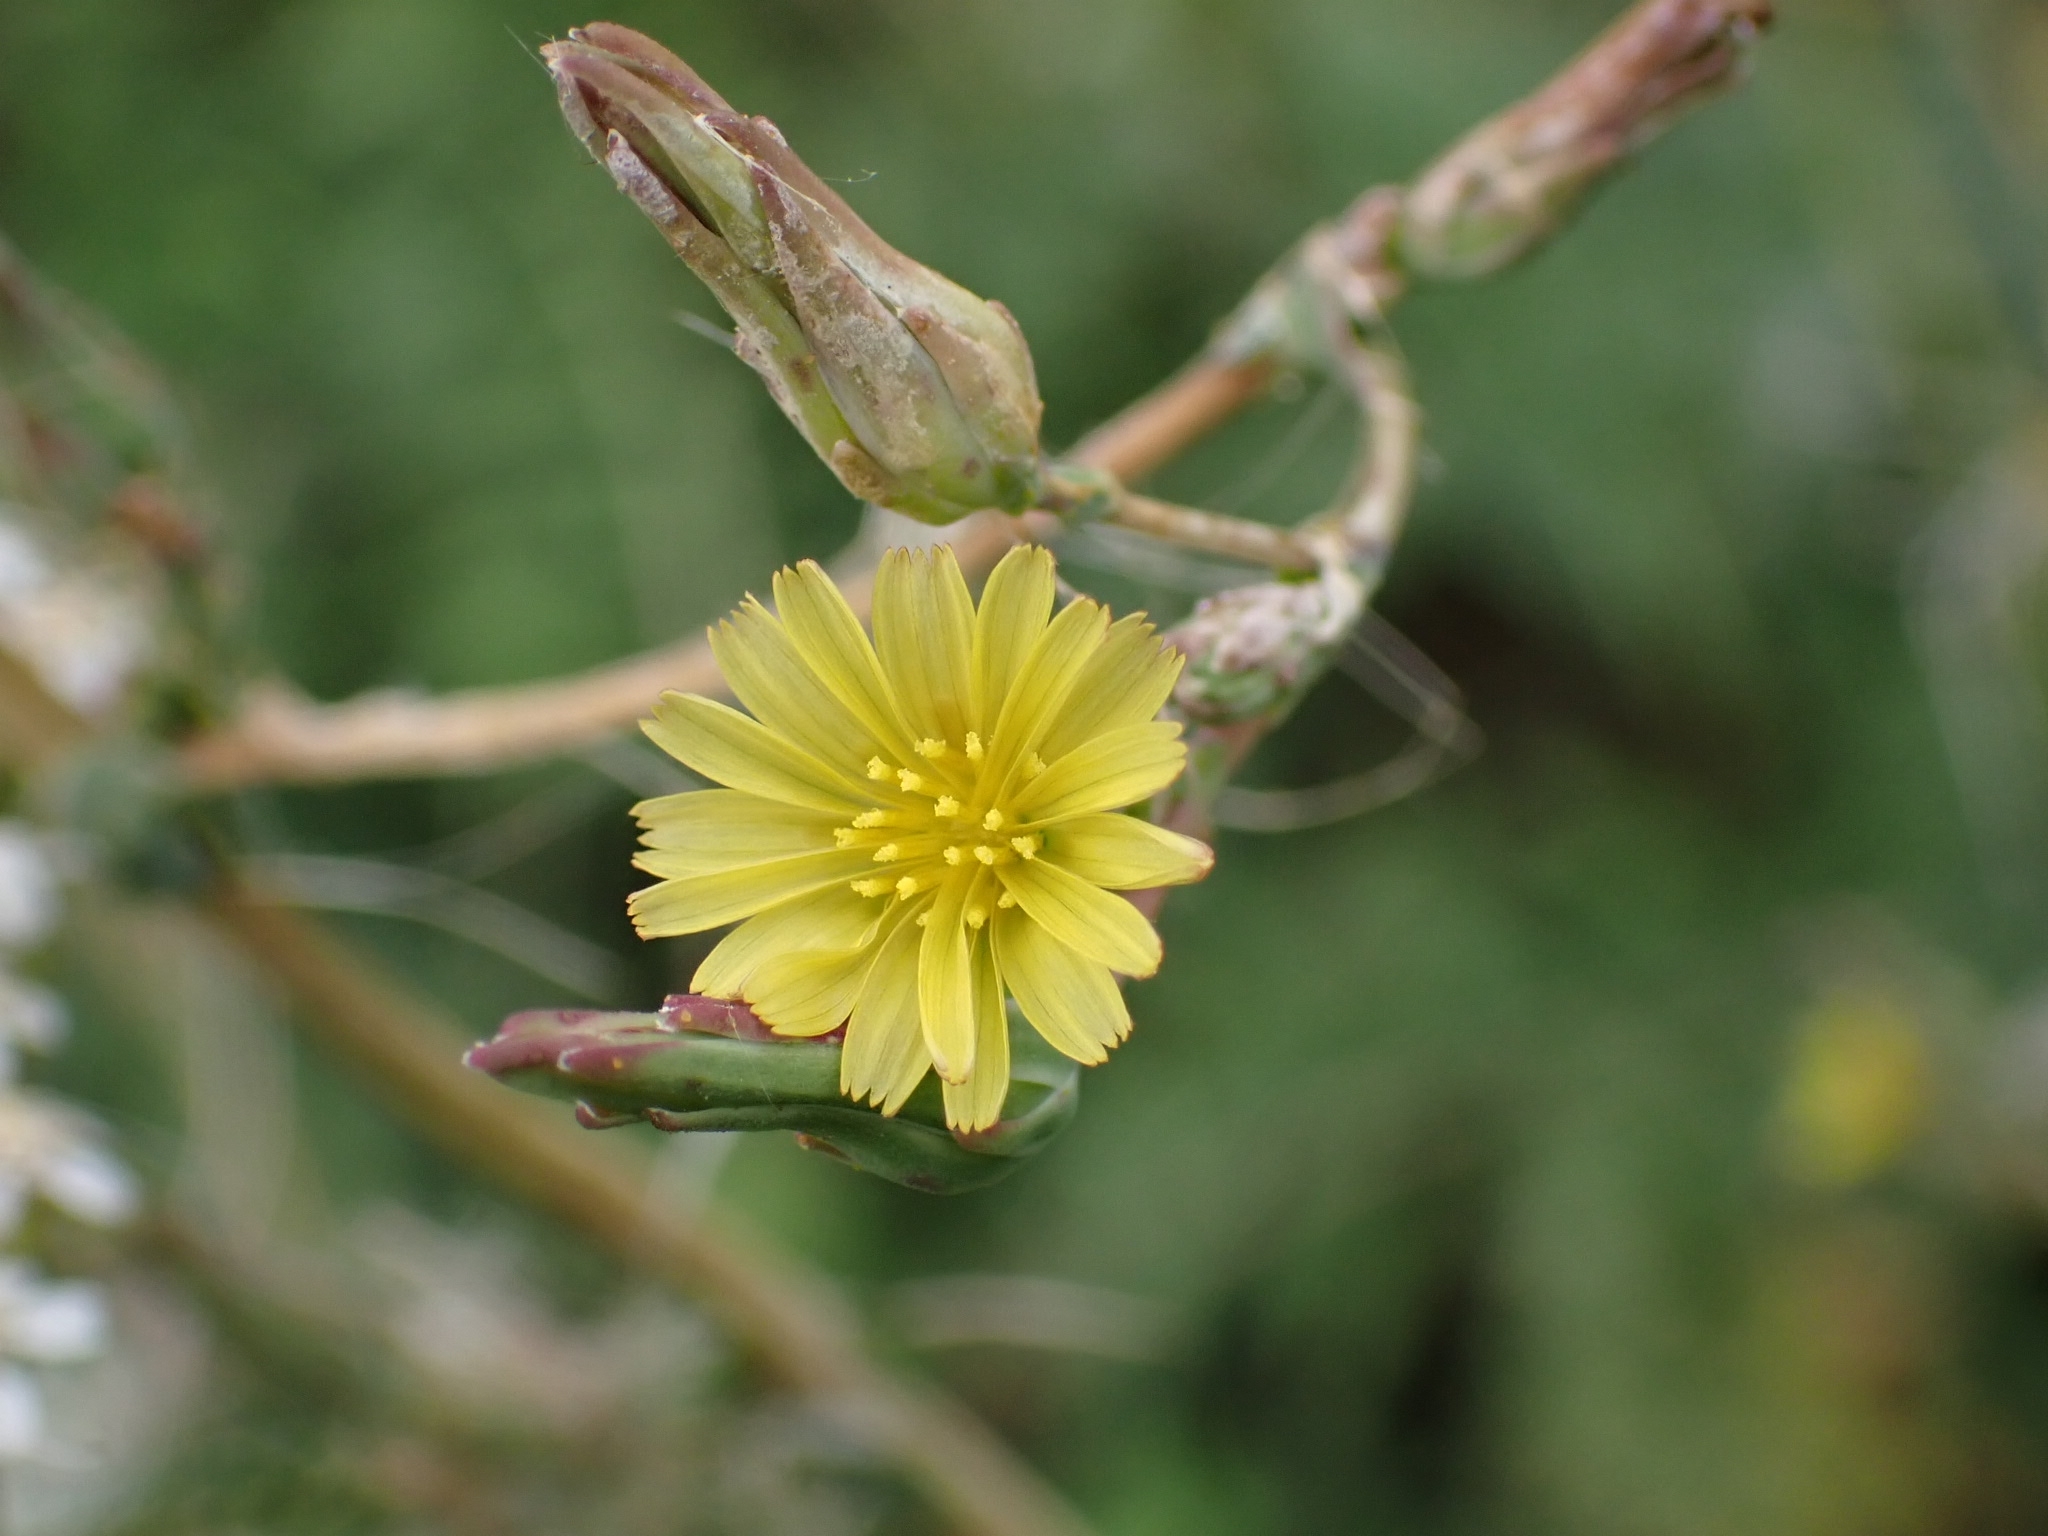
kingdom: Plantae
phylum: Tracheophyta
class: Magnoliopsida
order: Asterales
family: Asteraceae
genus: Lactuca
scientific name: Lactuca serriola
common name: Prickly lettuce
